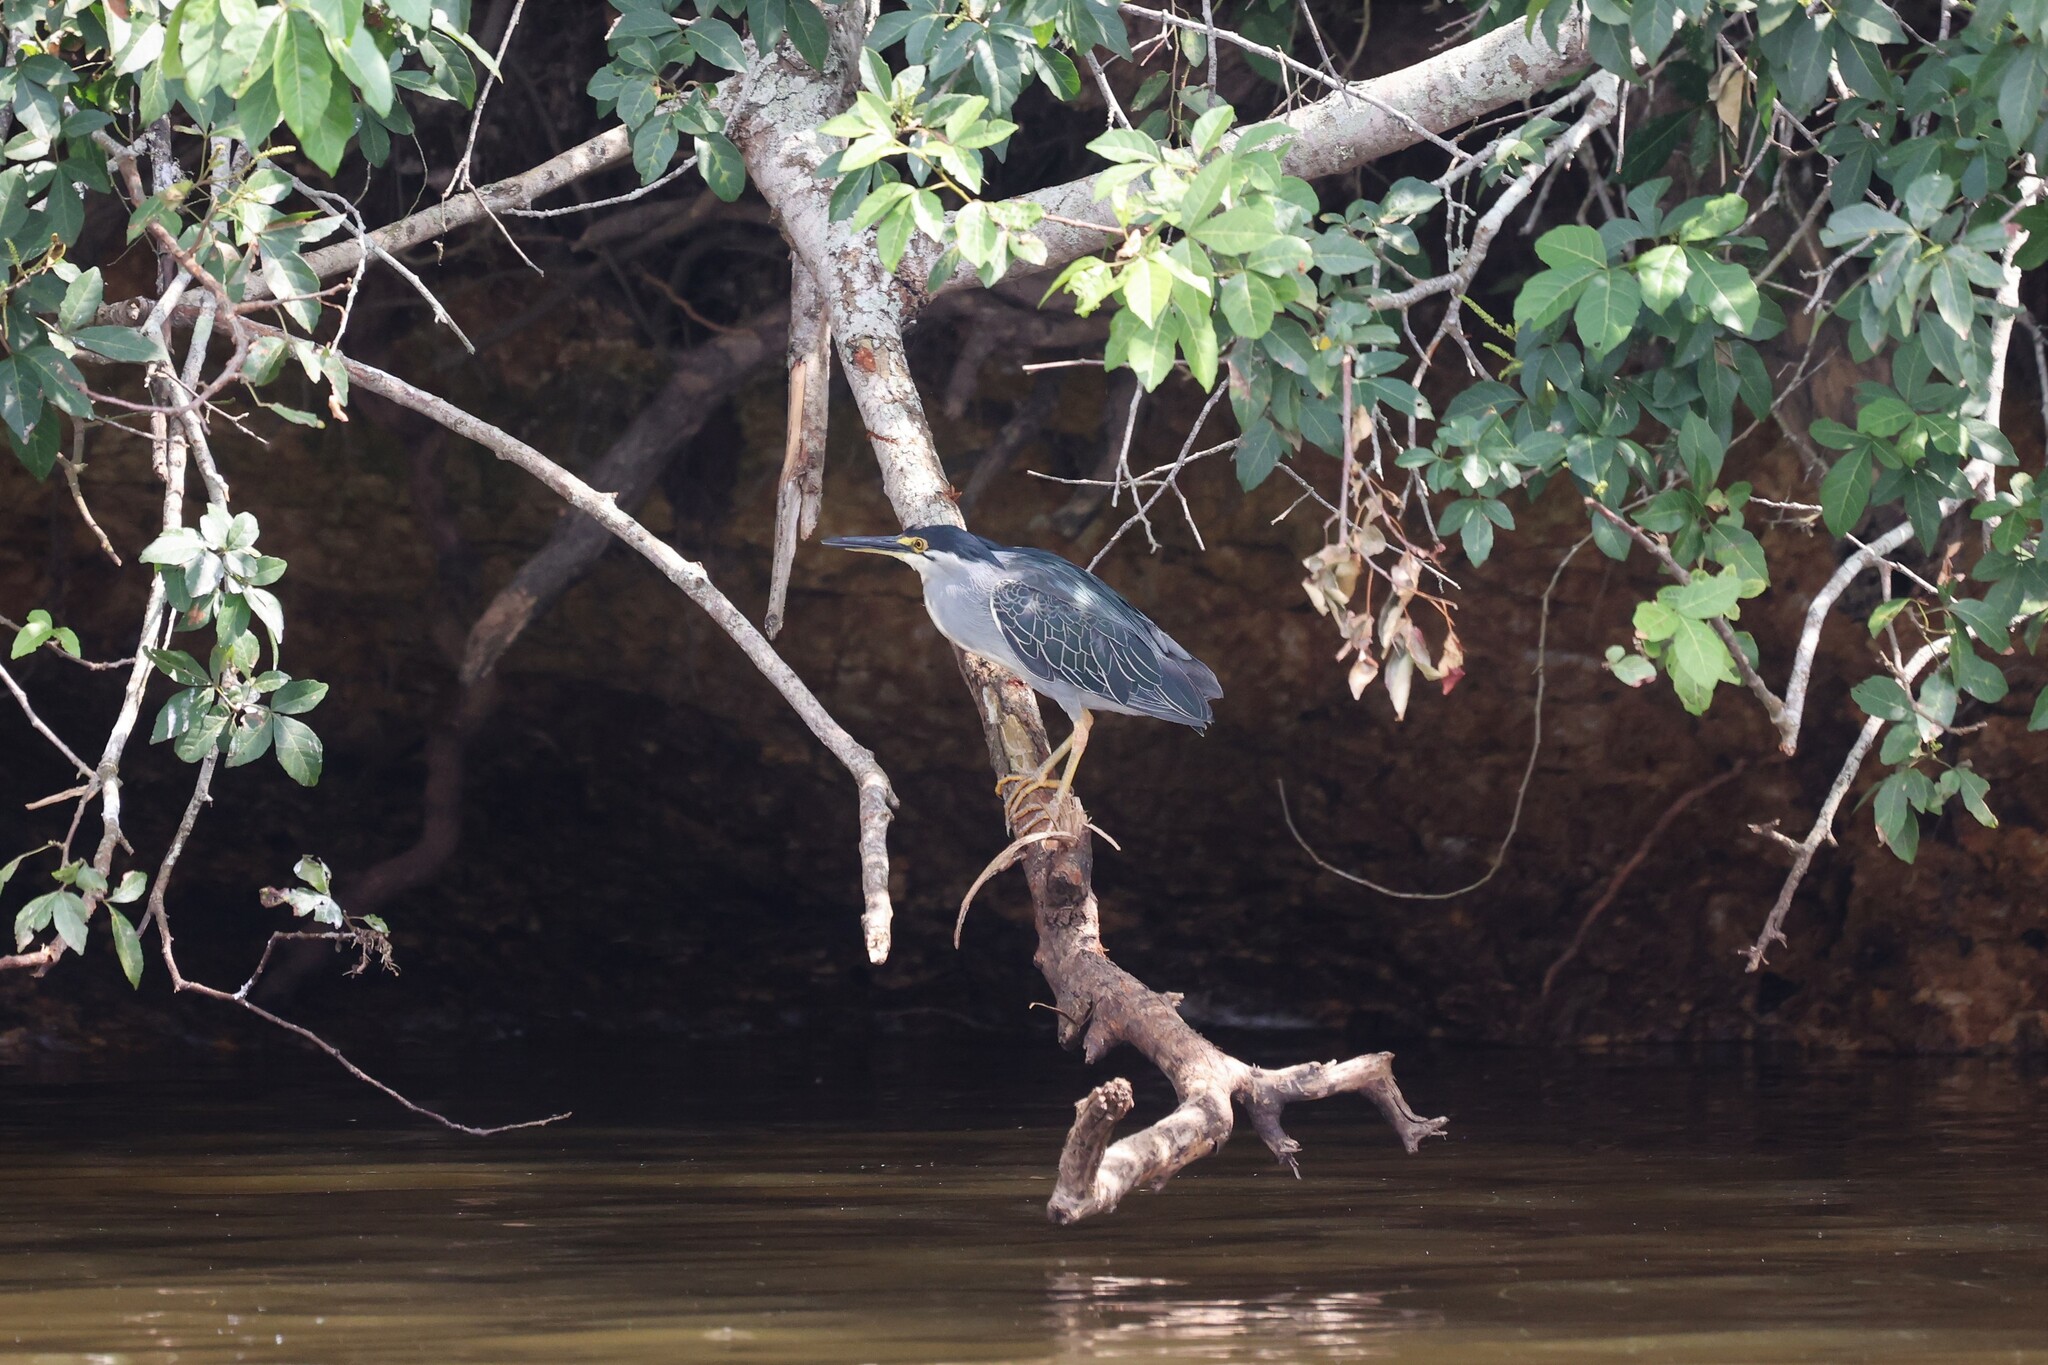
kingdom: Animalia
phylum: Chordata
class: Aves
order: Pelecaniformes
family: Ardeidae
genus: Butorides
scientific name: Butorides striata
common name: Striated heron
